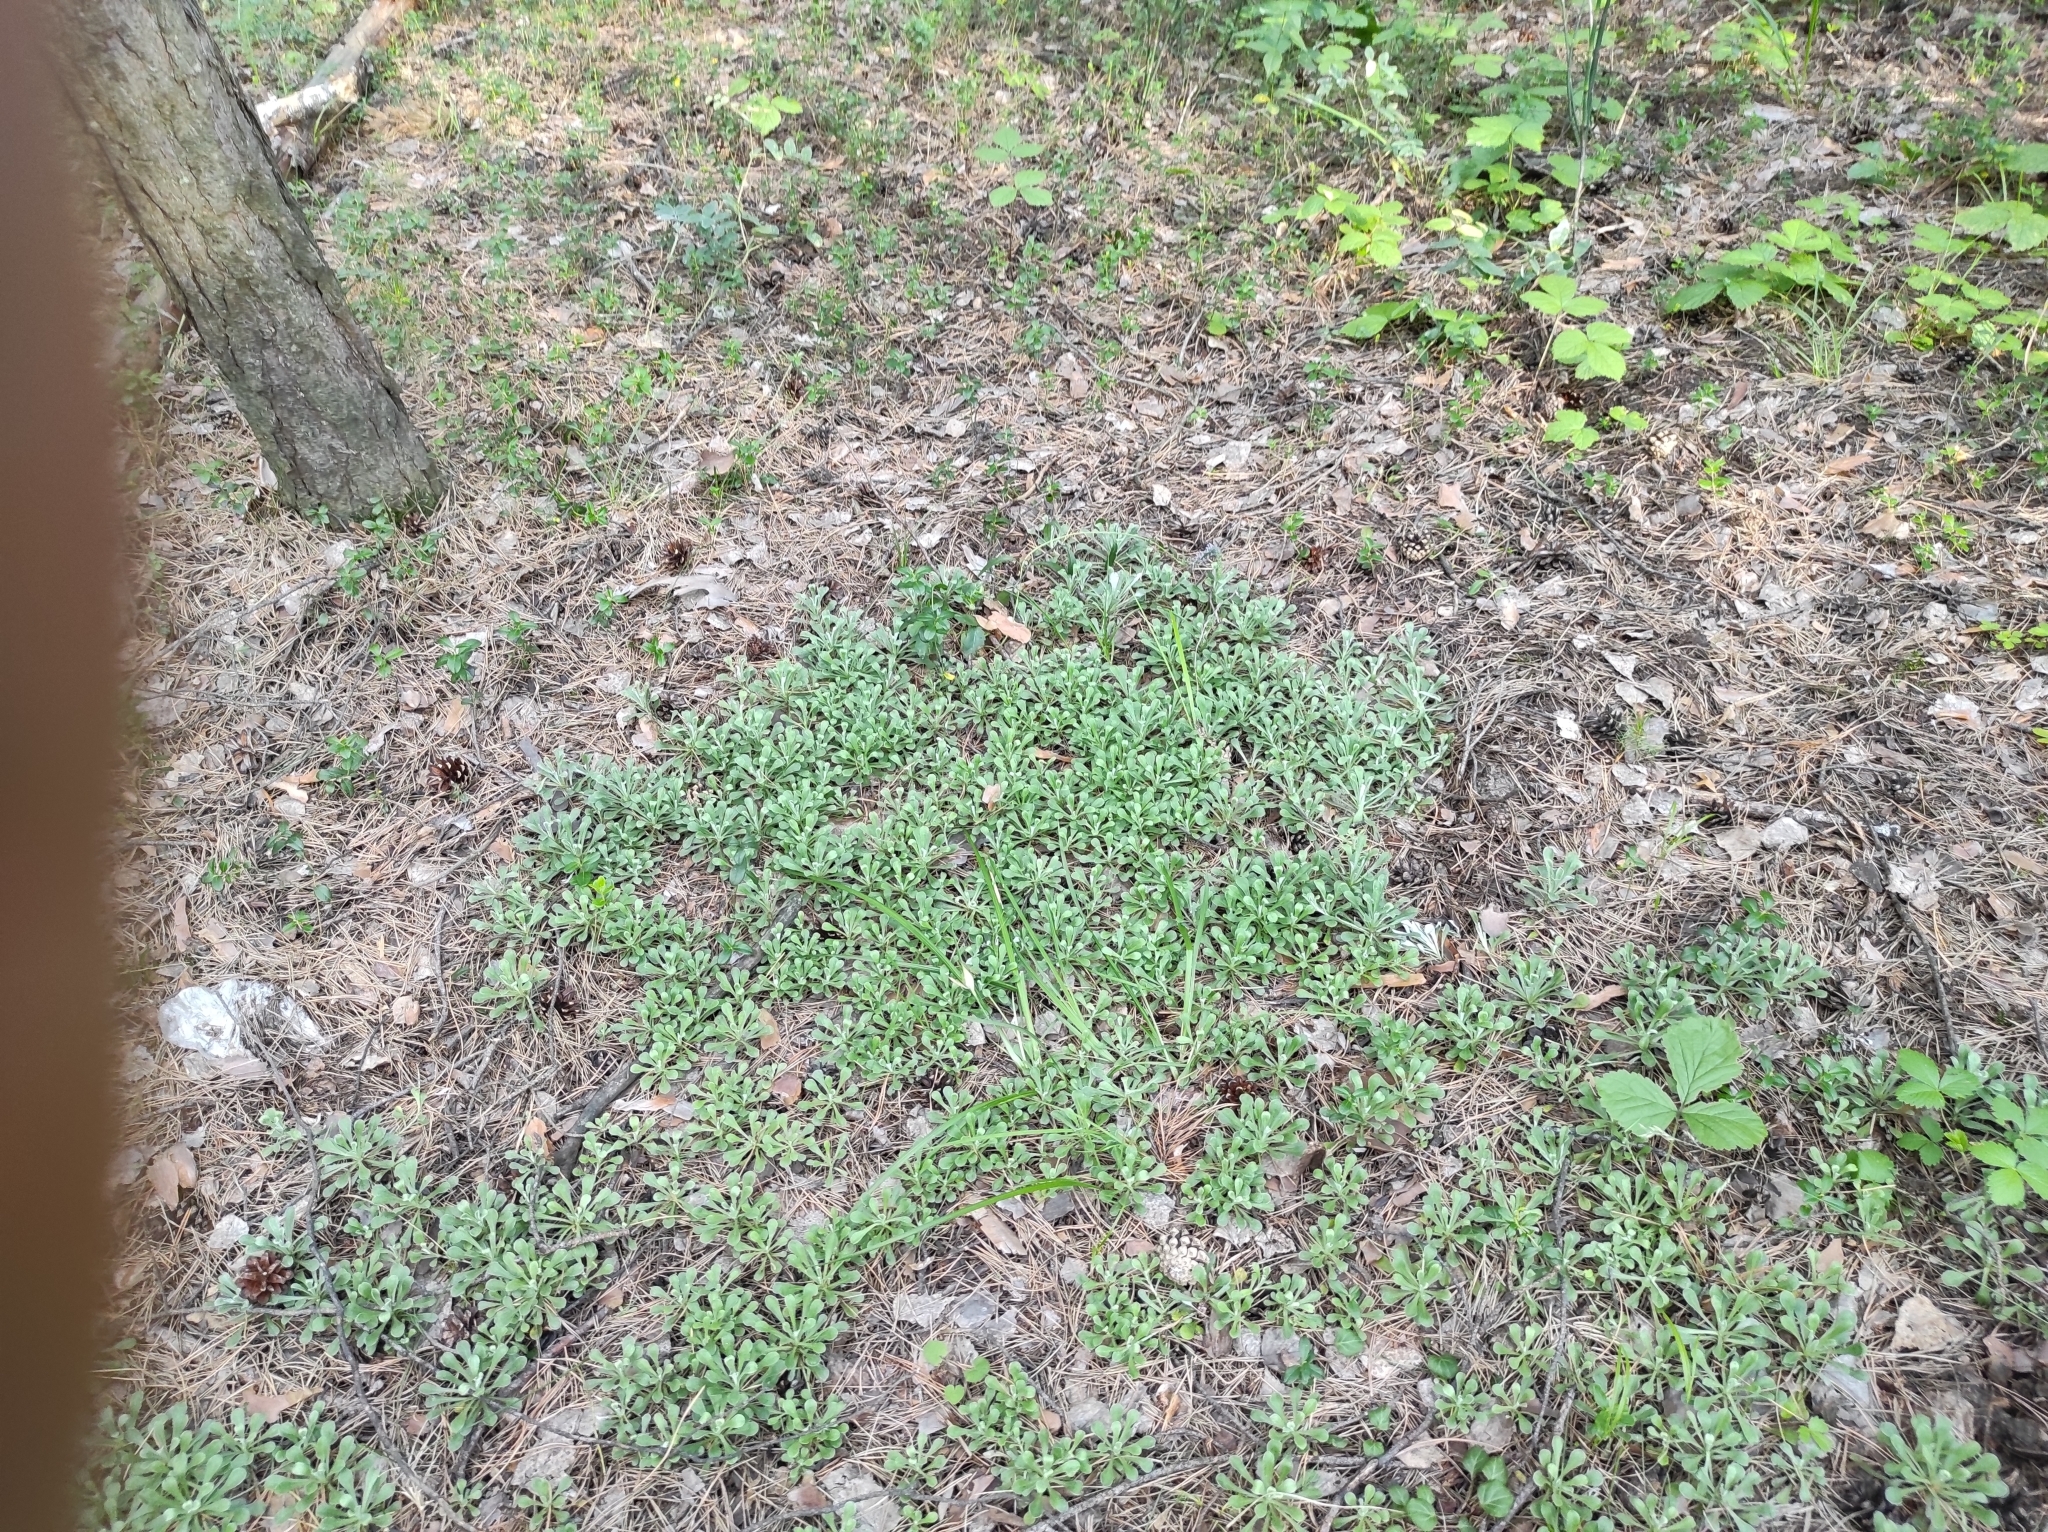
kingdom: Plantae
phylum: Tracheophyta
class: Magnoliopsida
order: Asterales
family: Asteraceae
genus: Antennaria
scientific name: Antennaria dioica
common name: Mountain everlasting
